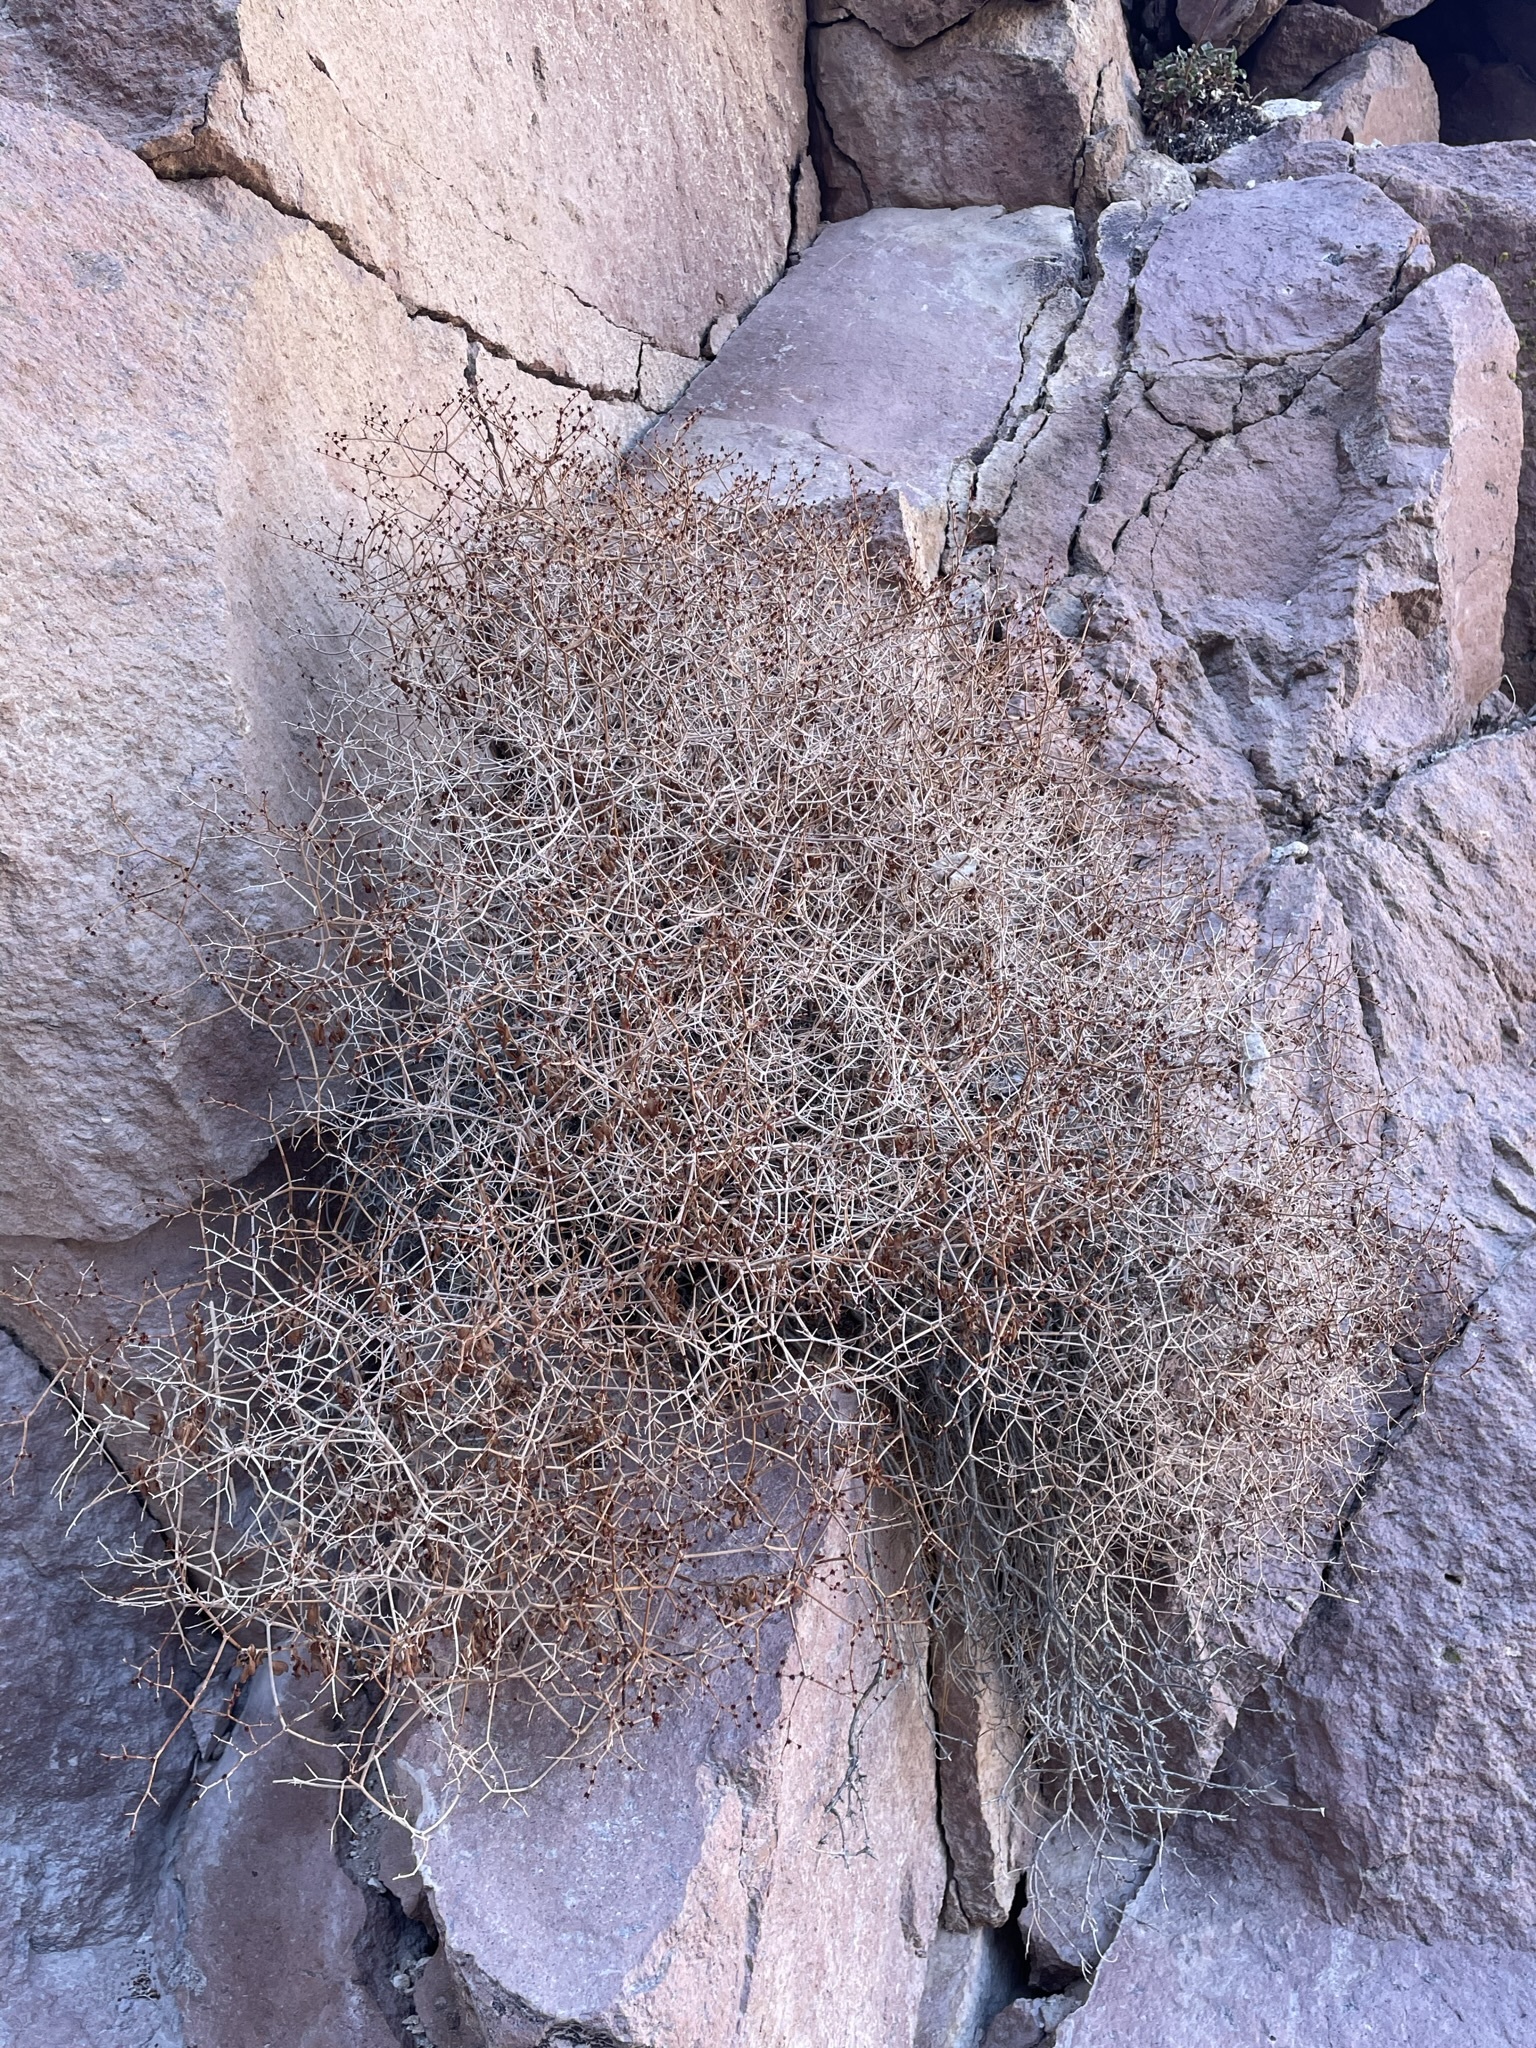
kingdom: Plantae
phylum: Tracheophyta
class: Magnoliopsida
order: Caryophyllales
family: Polygonaceae
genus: Eriogonum
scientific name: Eriogonum heermannii
